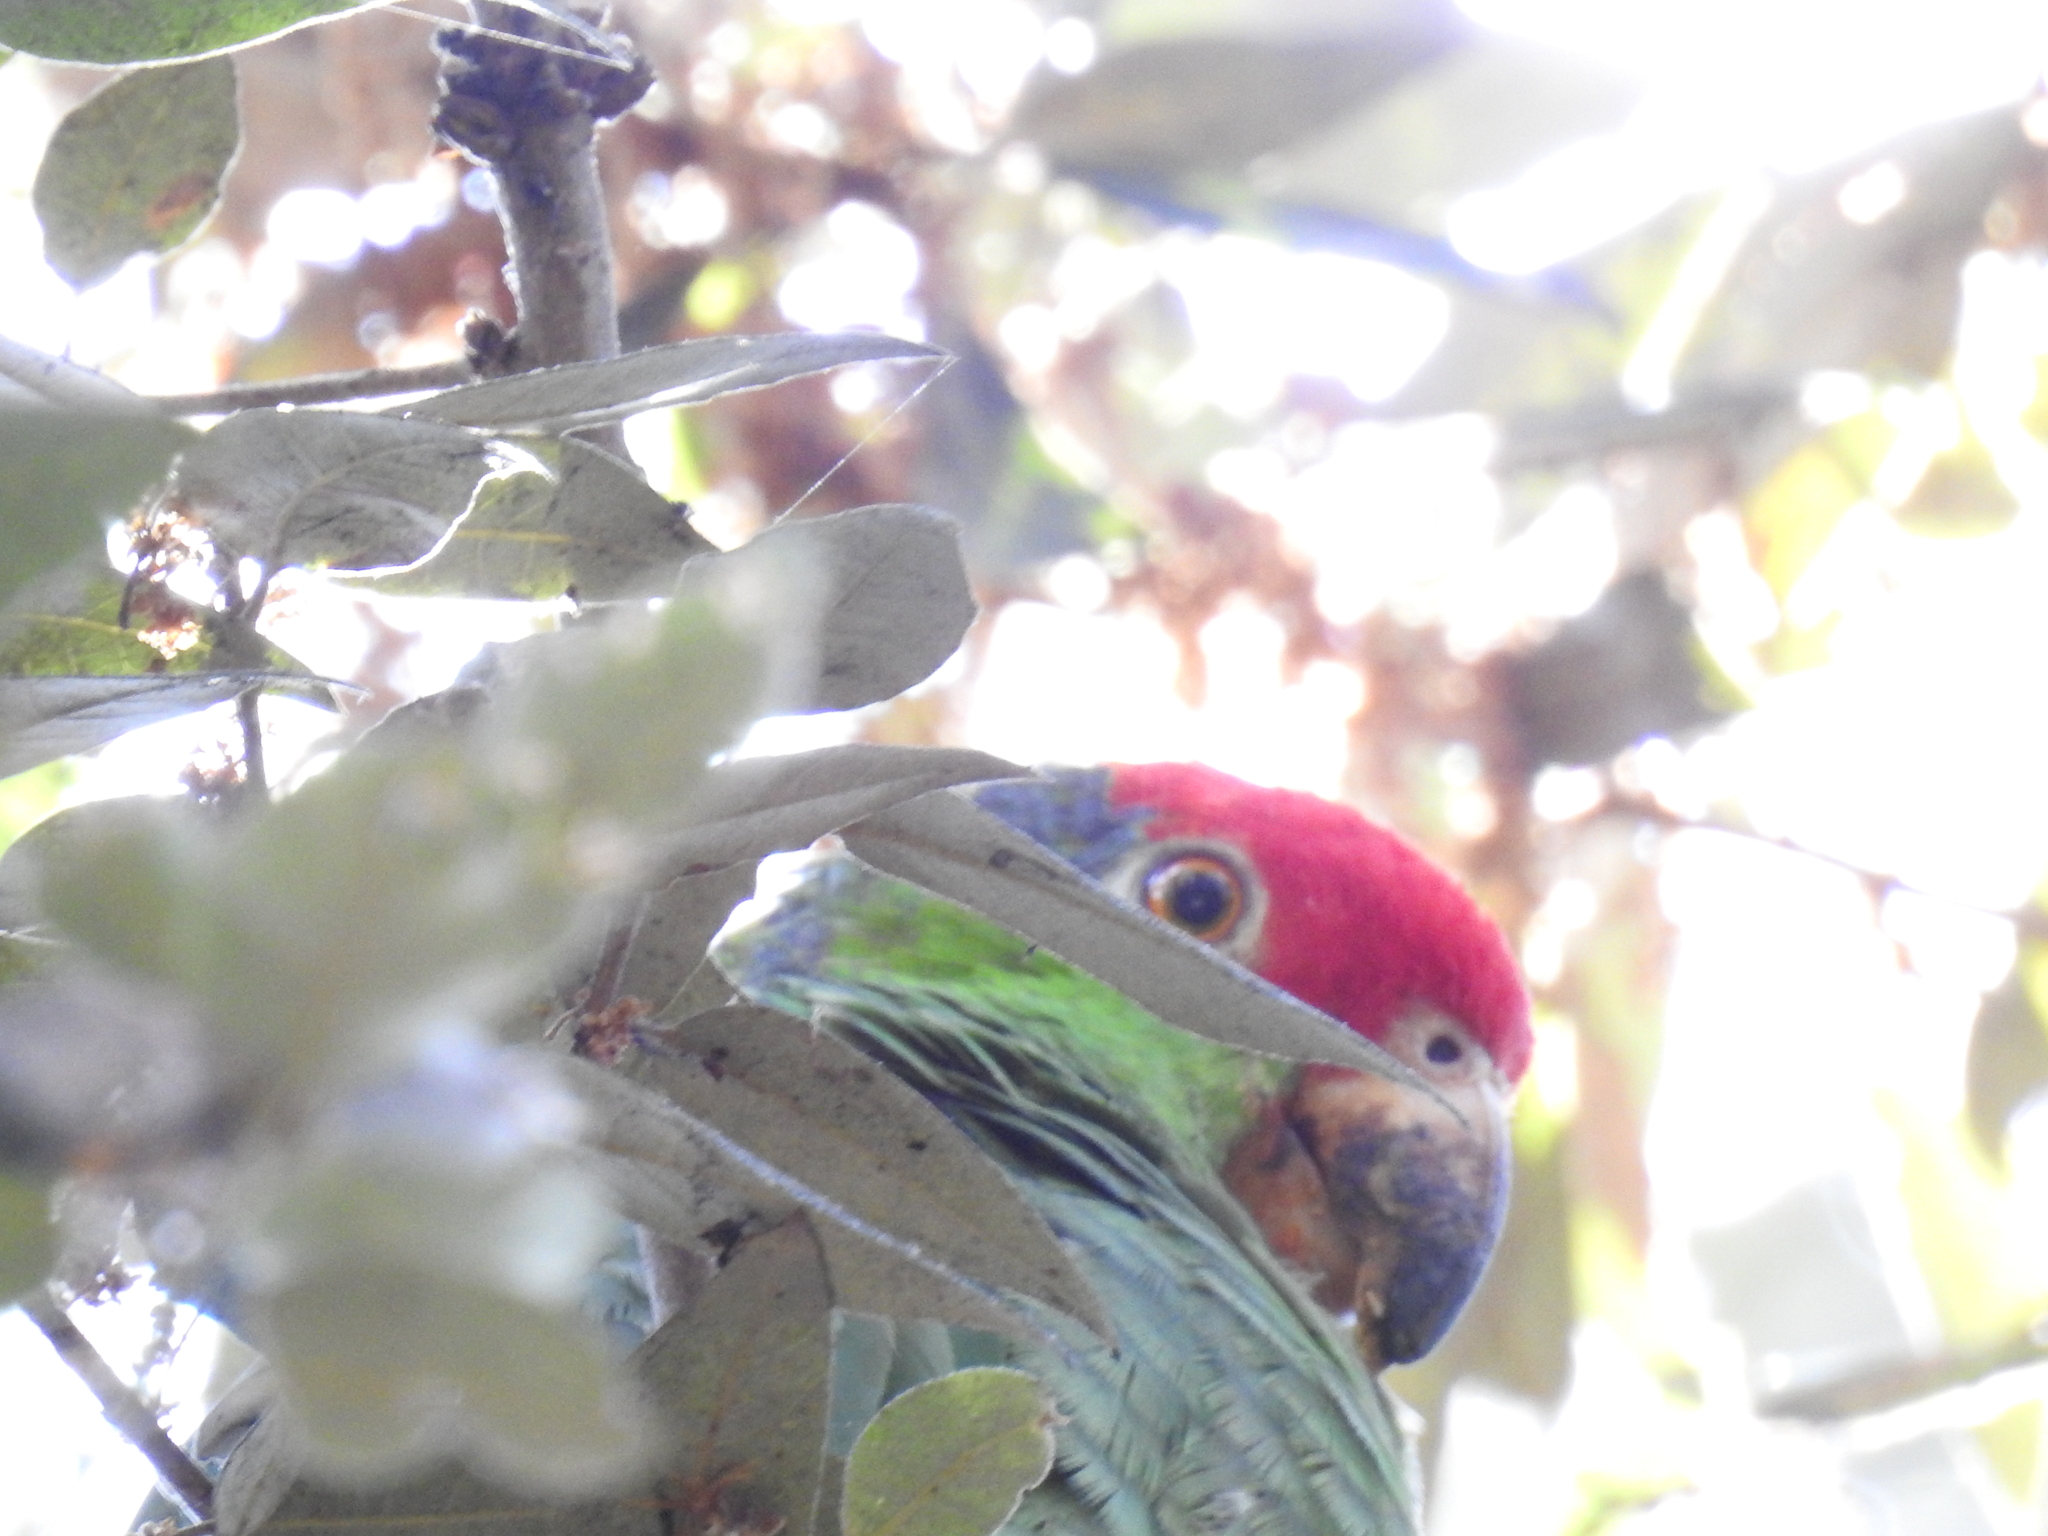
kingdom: Animalia
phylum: Chordata
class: Aves
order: Psittaciformes
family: Psittacidae
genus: Amazona
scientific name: Amazona viridigenalis
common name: Red-crowned amazon
